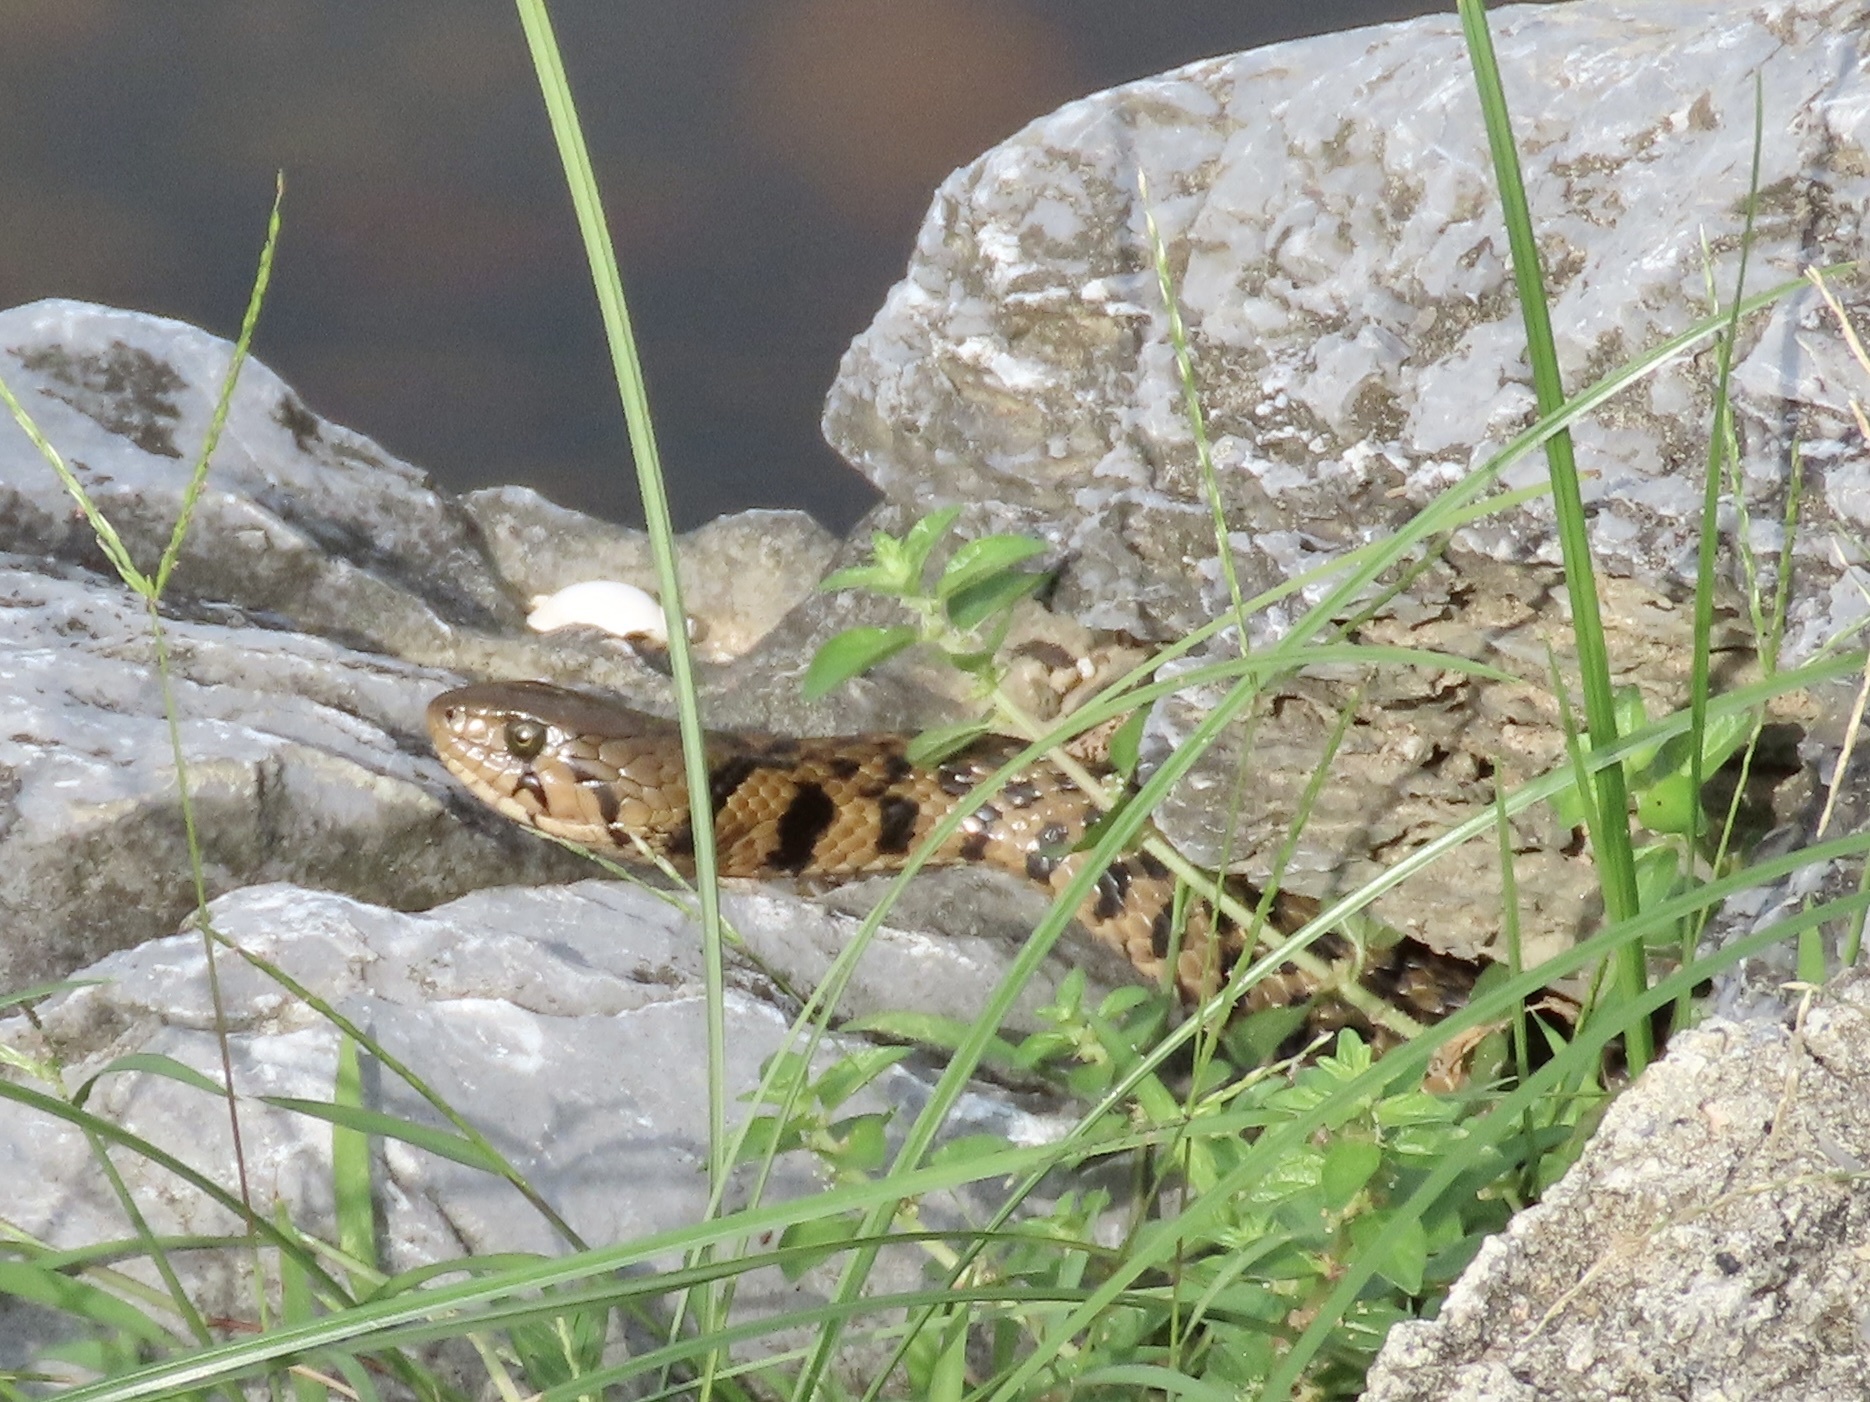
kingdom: Animalia
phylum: Chordata
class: Squamata
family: Colubridae
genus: Fowlea
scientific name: Fowlea flavipunctatus
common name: Yellow-spotted keelback
